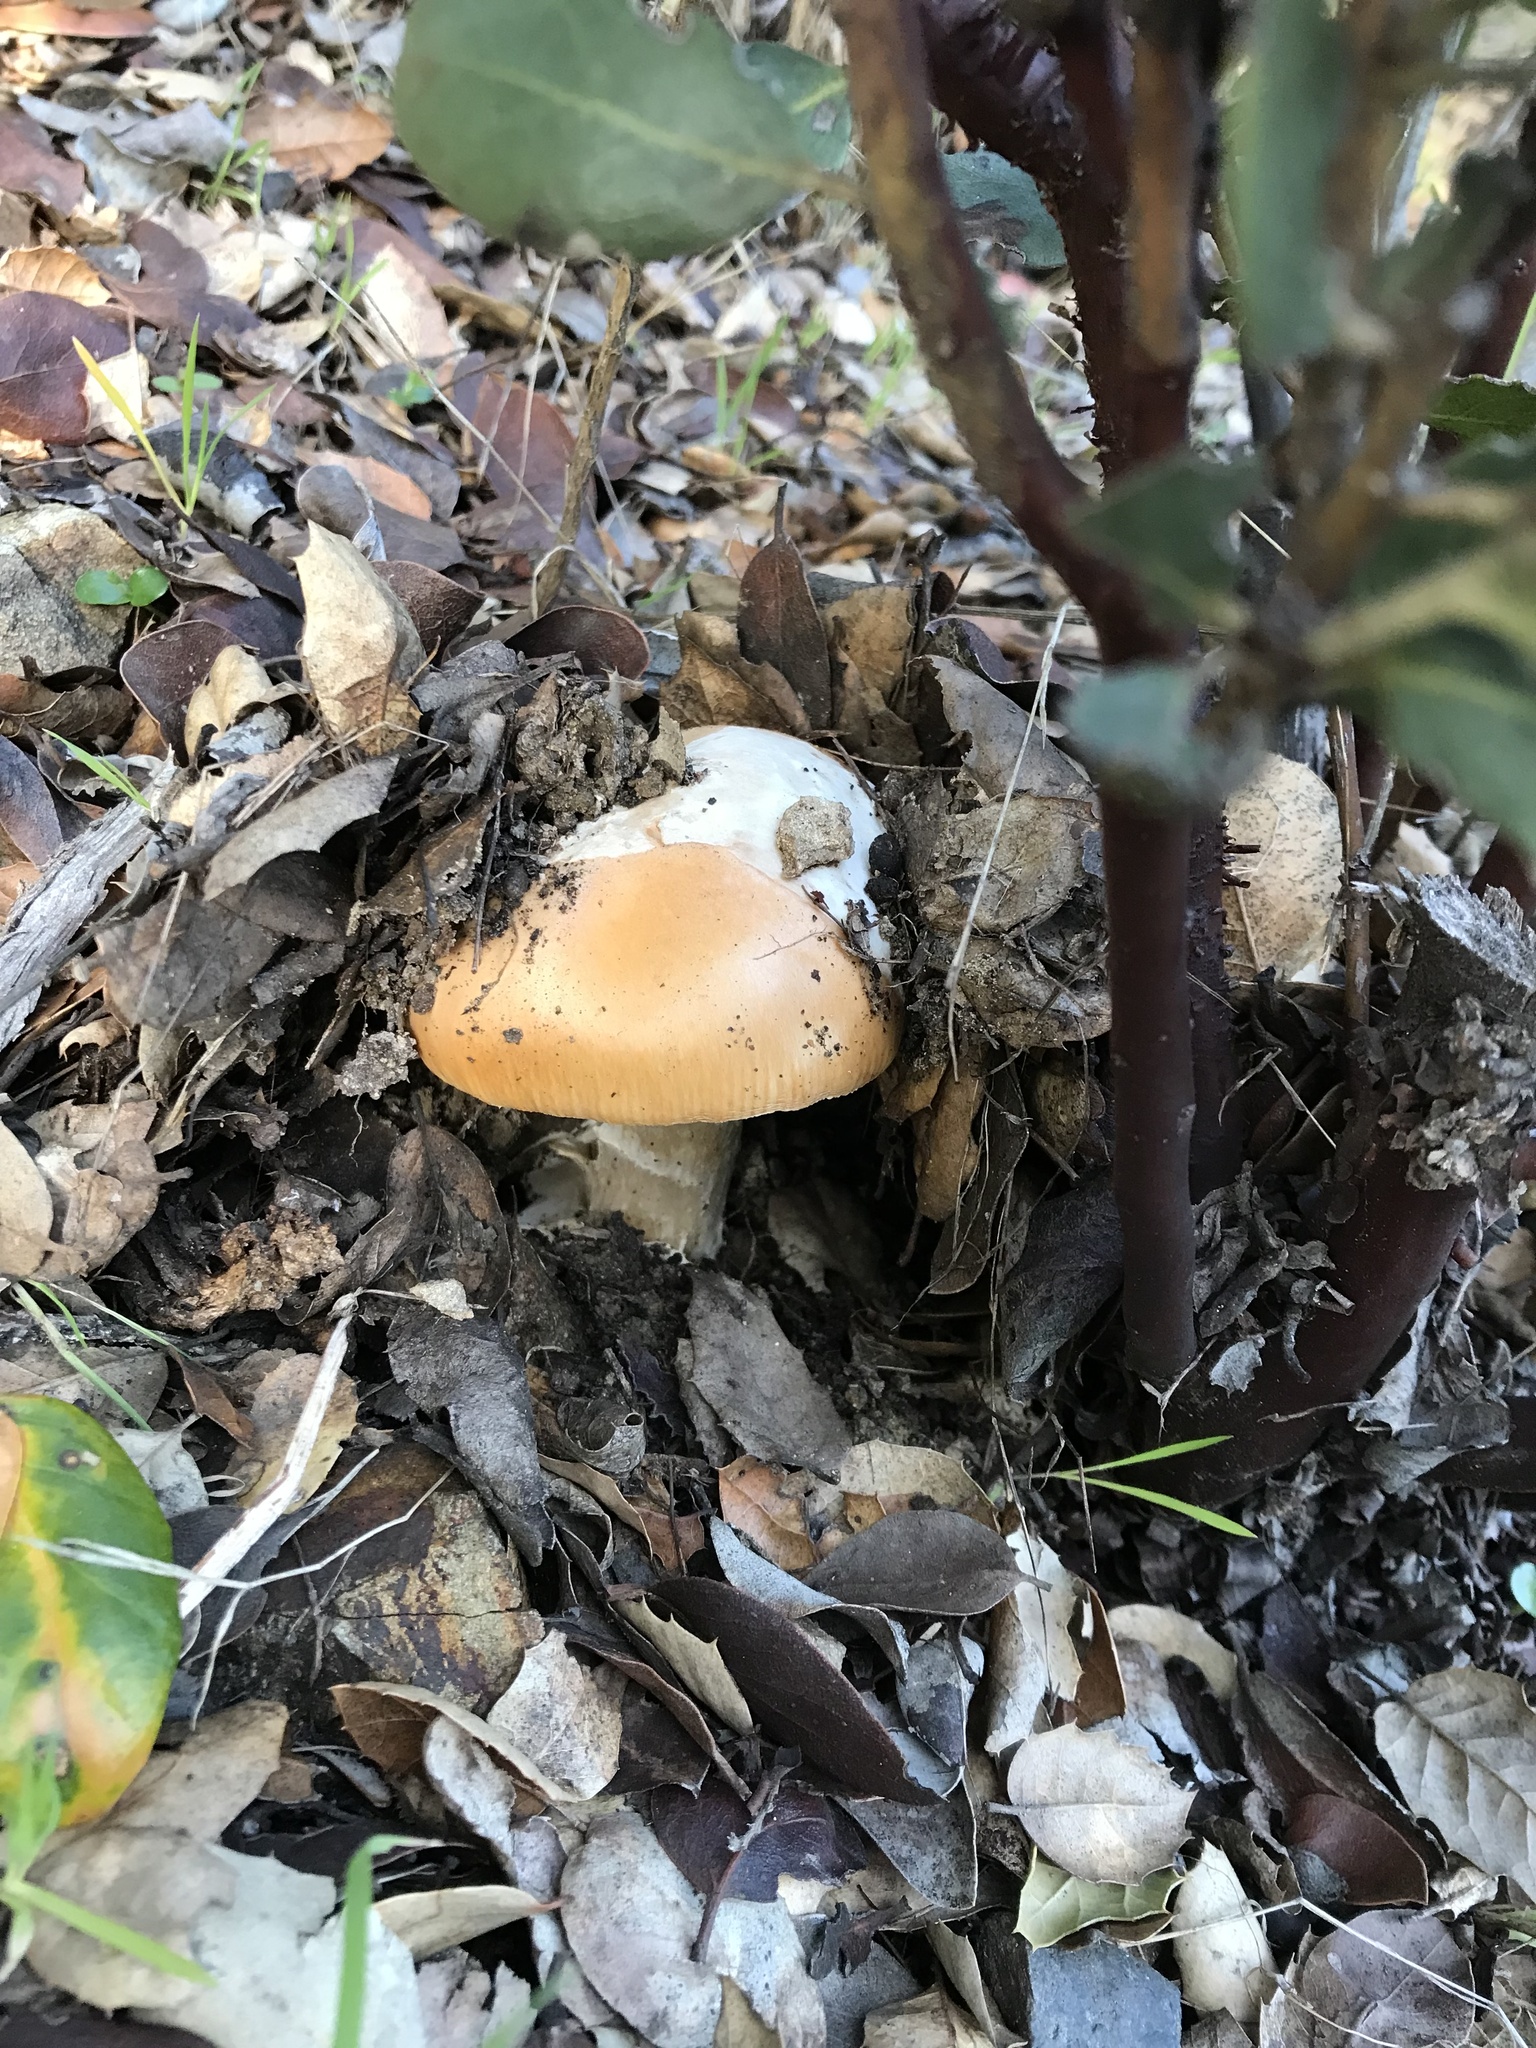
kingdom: Fungi
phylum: Basidiomycota
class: Agaricomycetes
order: Agaricales
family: Amanitaceae
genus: Amanita
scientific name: Amanita velosa
